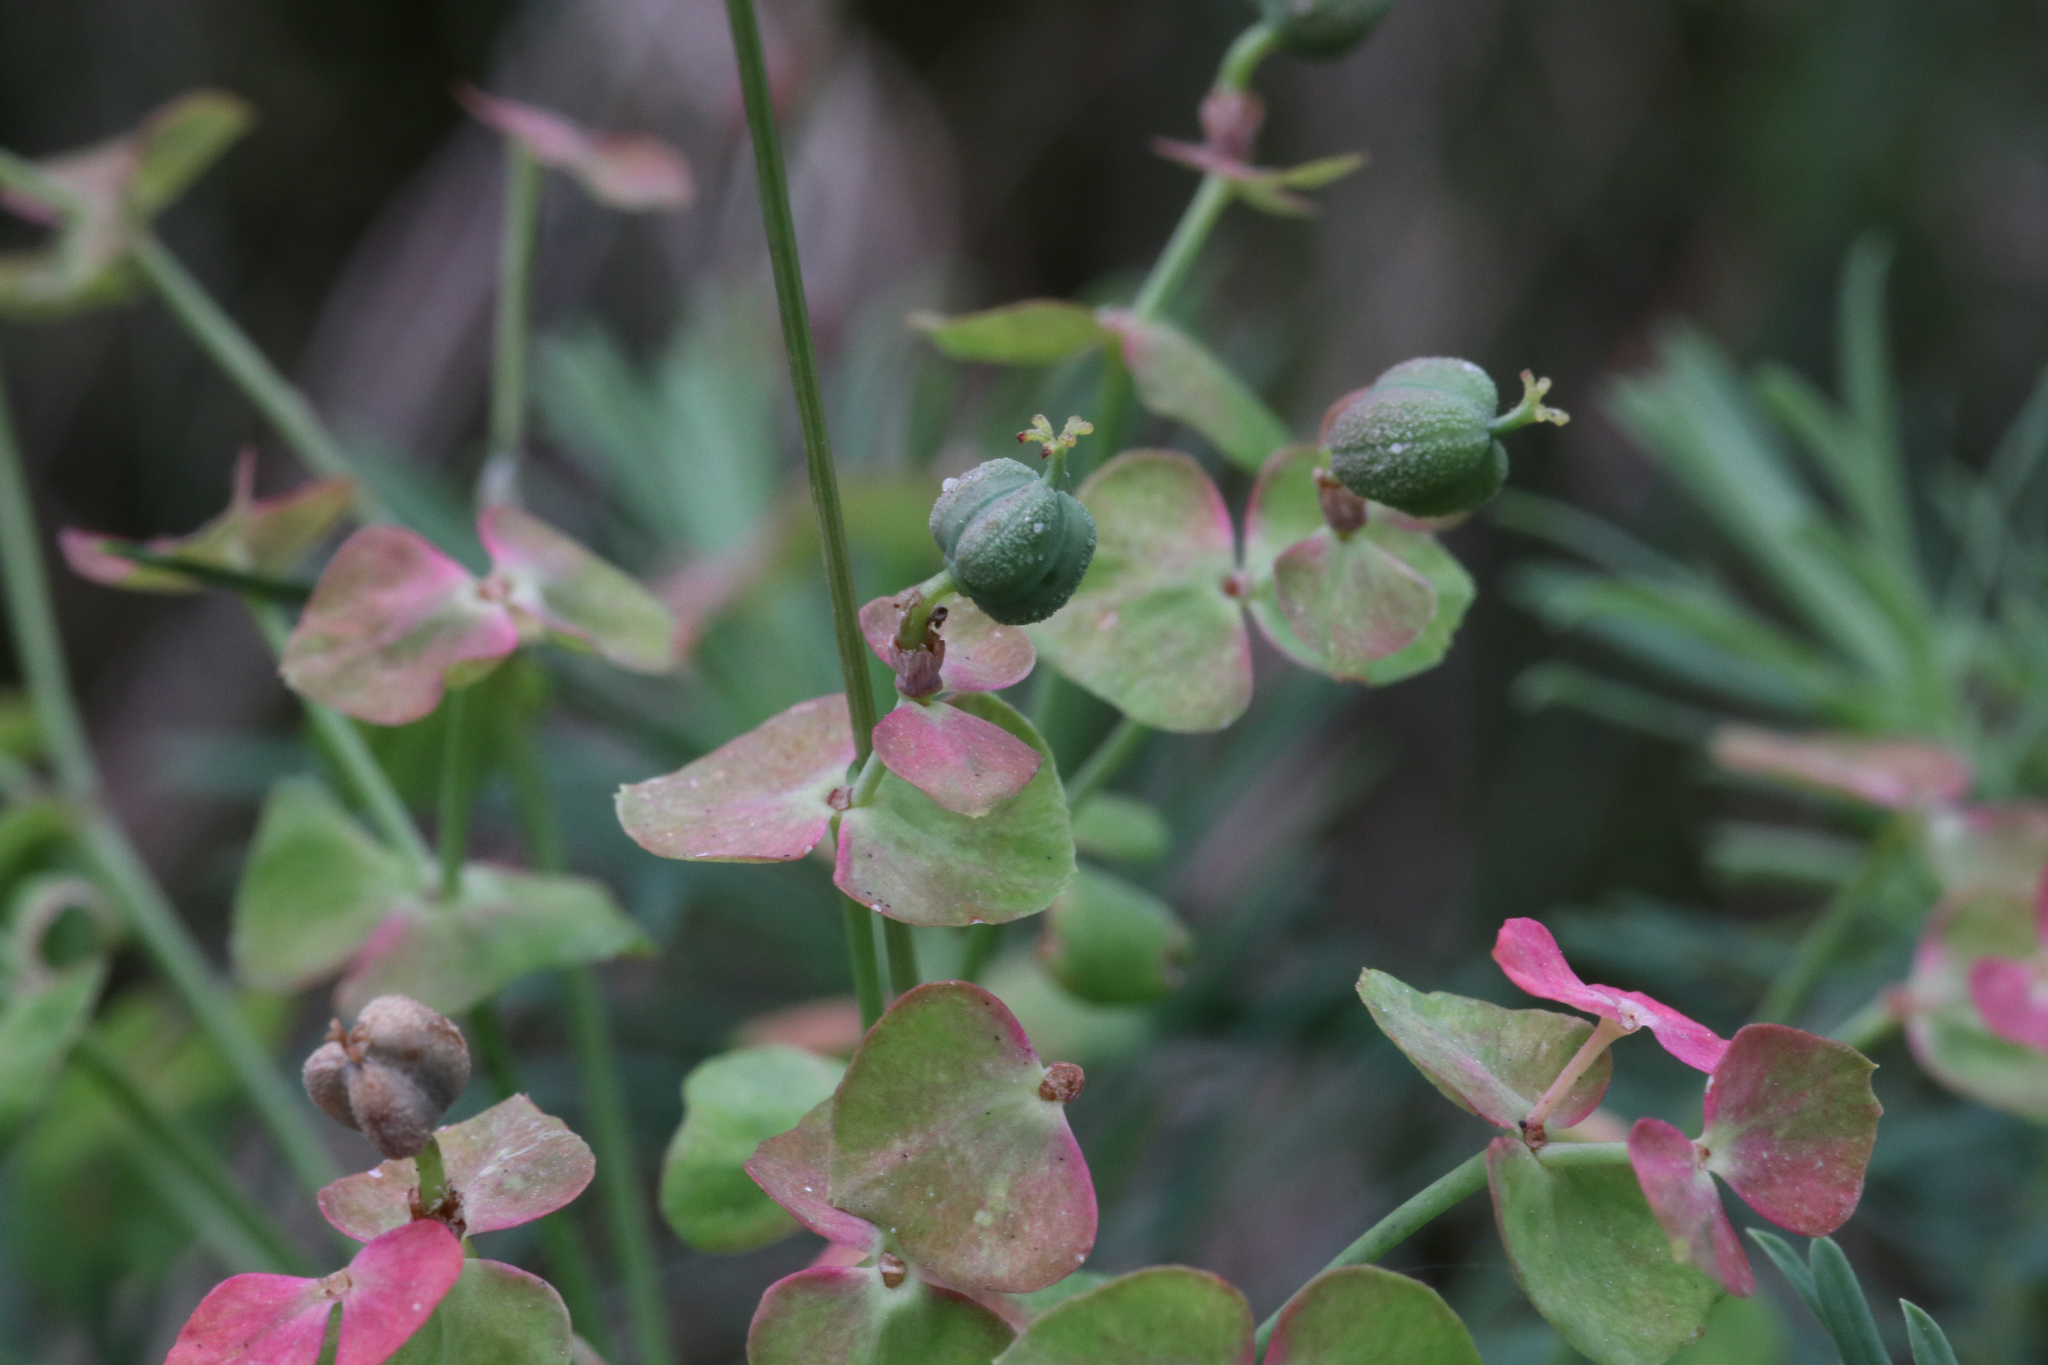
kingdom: Plantae
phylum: Tracheophyta
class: Magnoliopsida
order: Malpighiales
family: Euphorbiaceae
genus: Euphorbia
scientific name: Euphorbia cyparissias
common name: Cypress spurge
